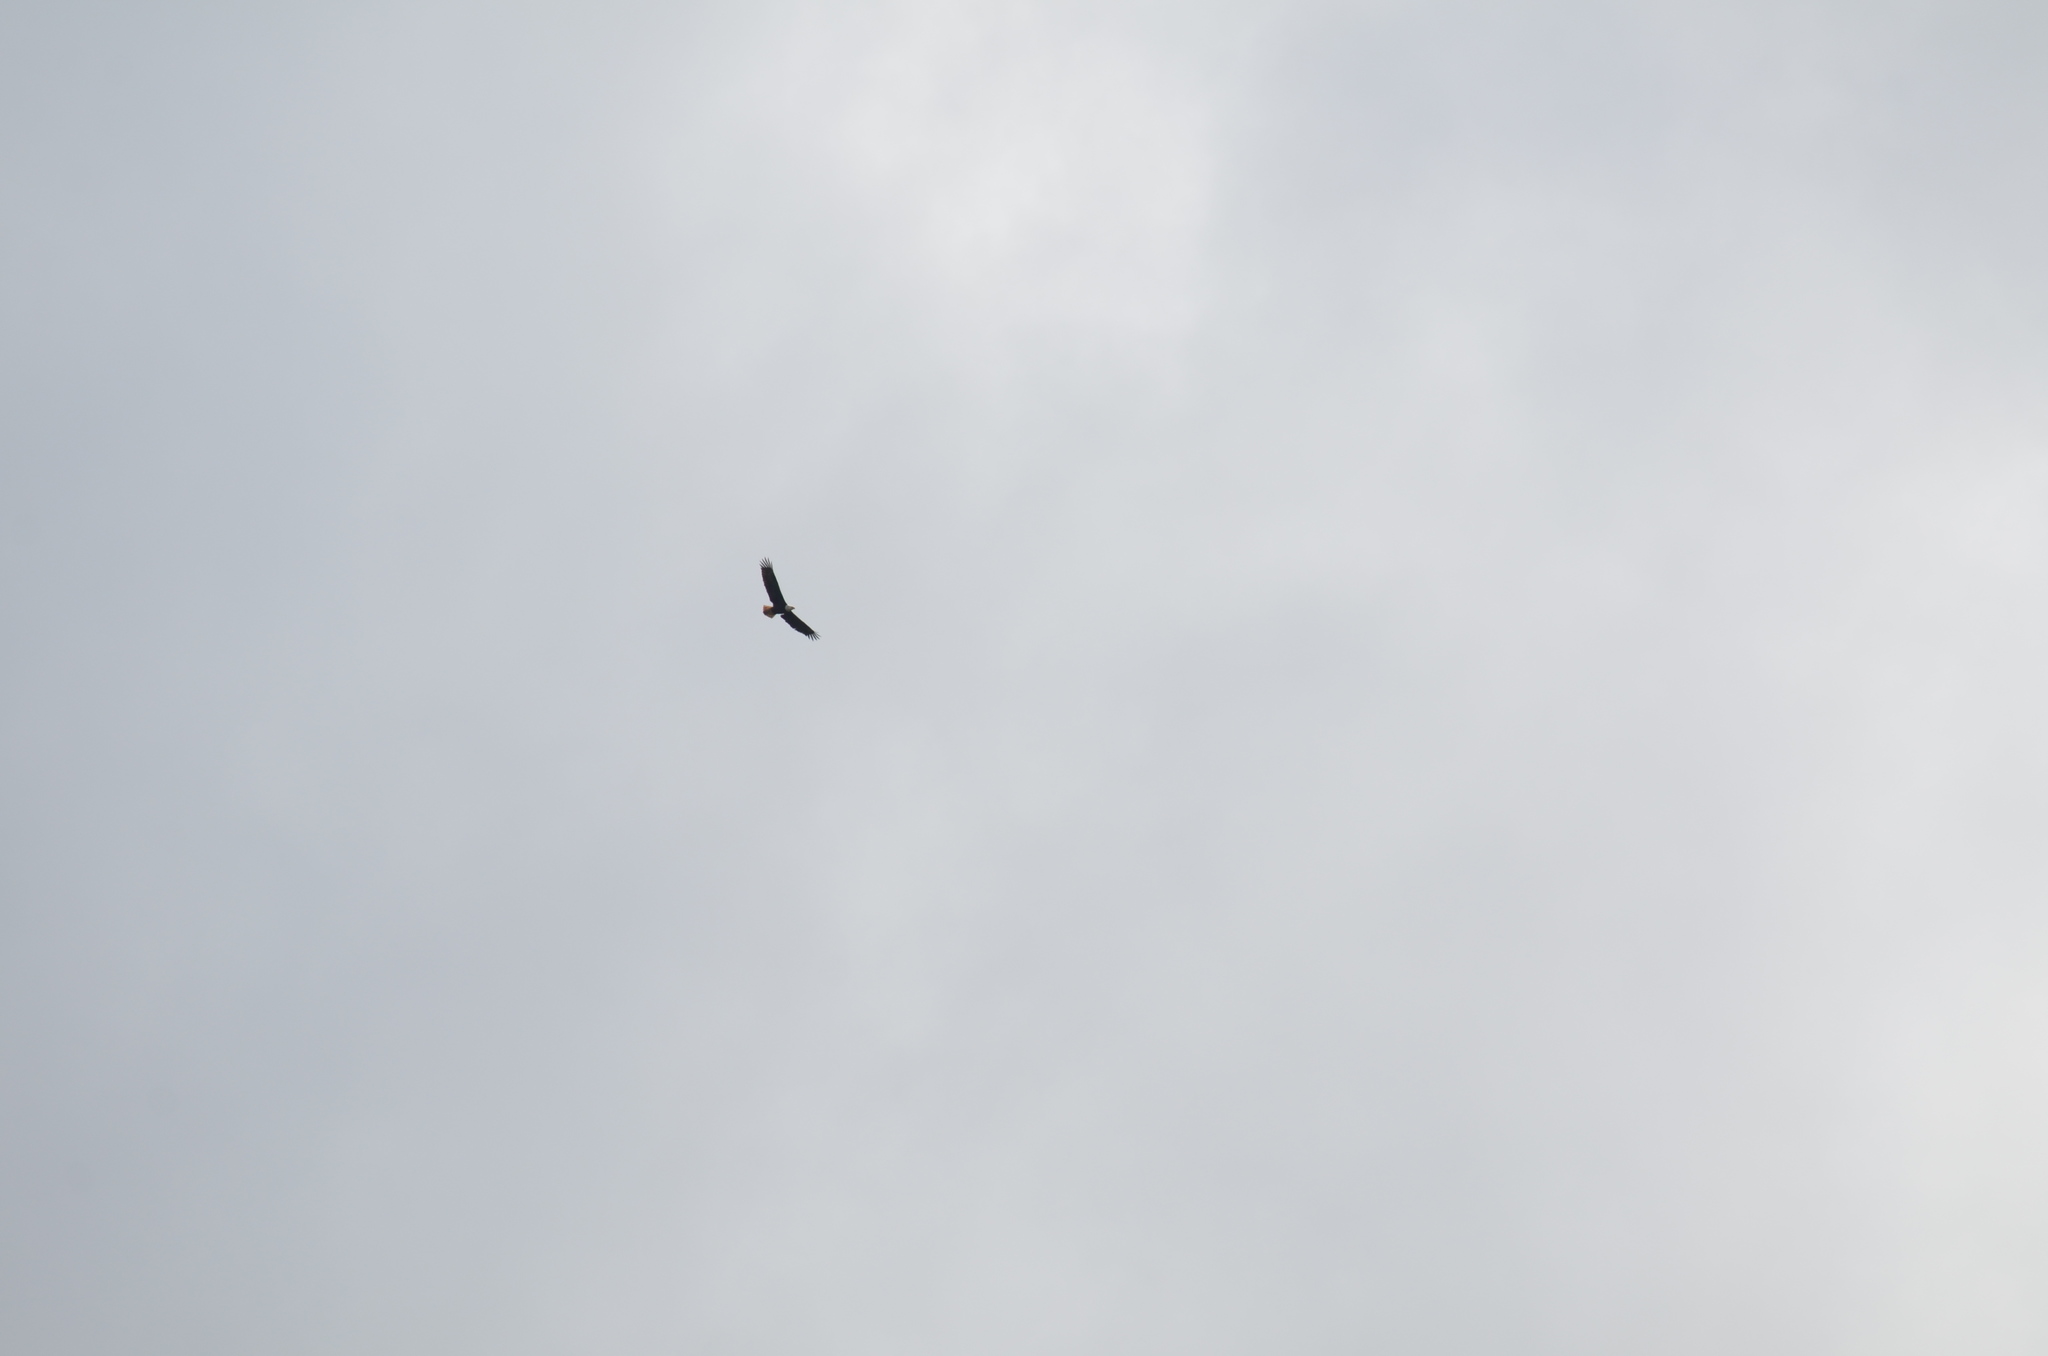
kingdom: Animalia
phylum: Chordata
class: Aves
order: Accipitriformes
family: Accipitridae
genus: Haliaeetus
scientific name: Haliaeetus leucocephalus
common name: Bald eagle
